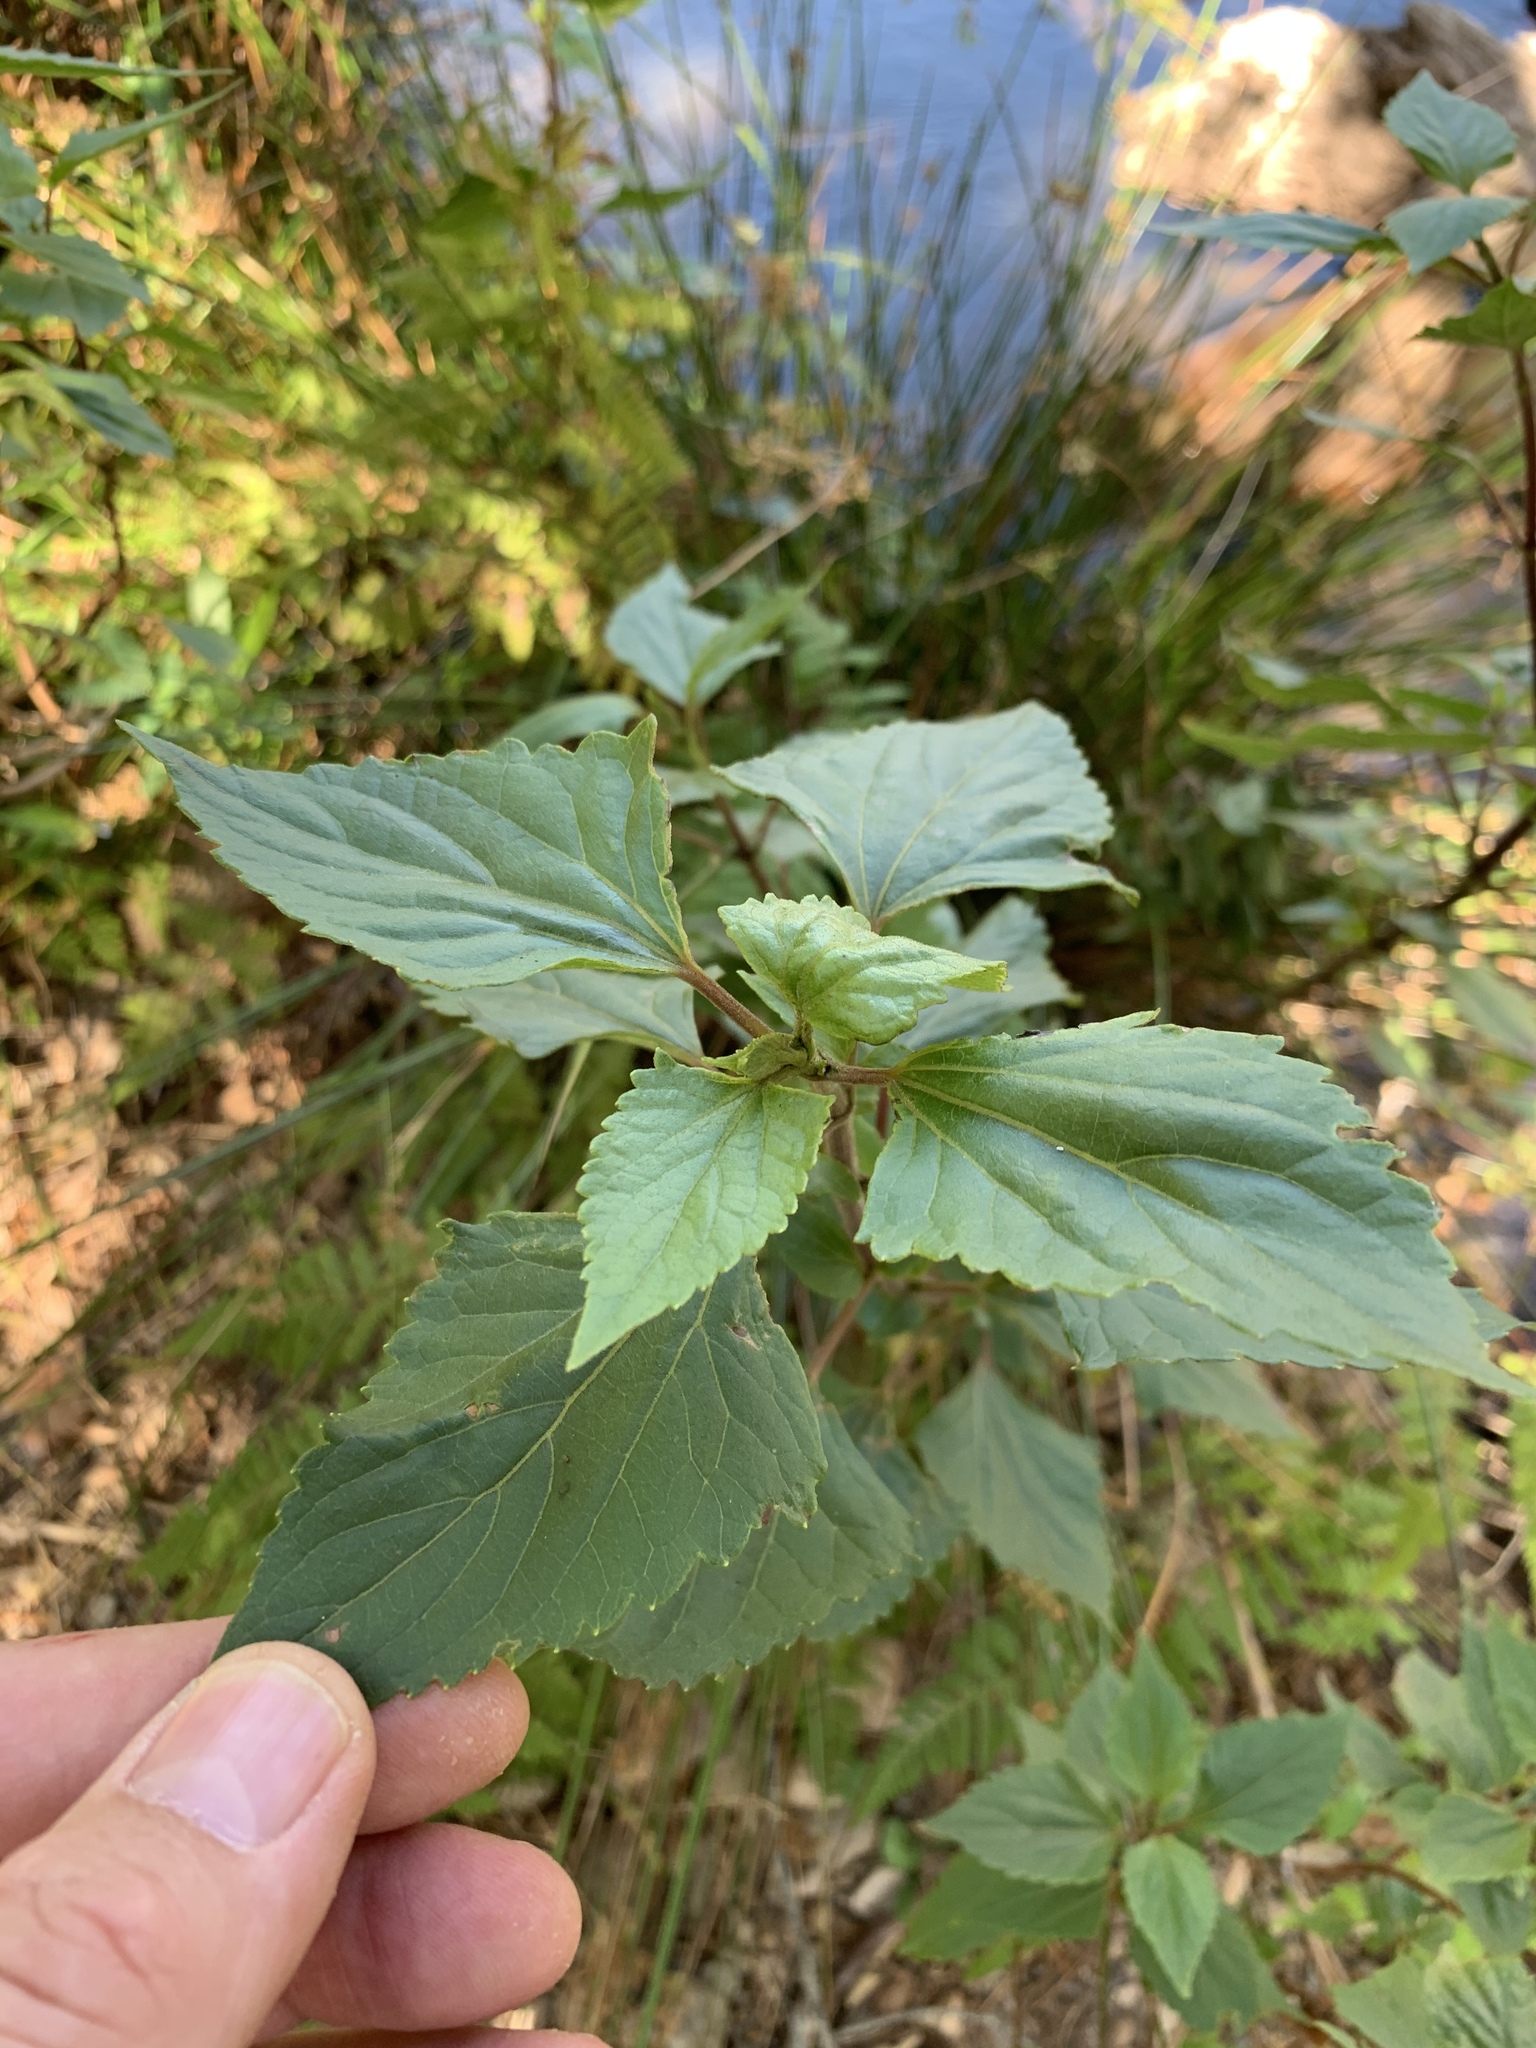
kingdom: Plantae
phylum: Tracheophyta
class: Magnoliopsida
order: Asterales
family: Asteraceae
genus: Ageratina
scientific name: Ageratina adenophora
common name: Sticky snakeroot
